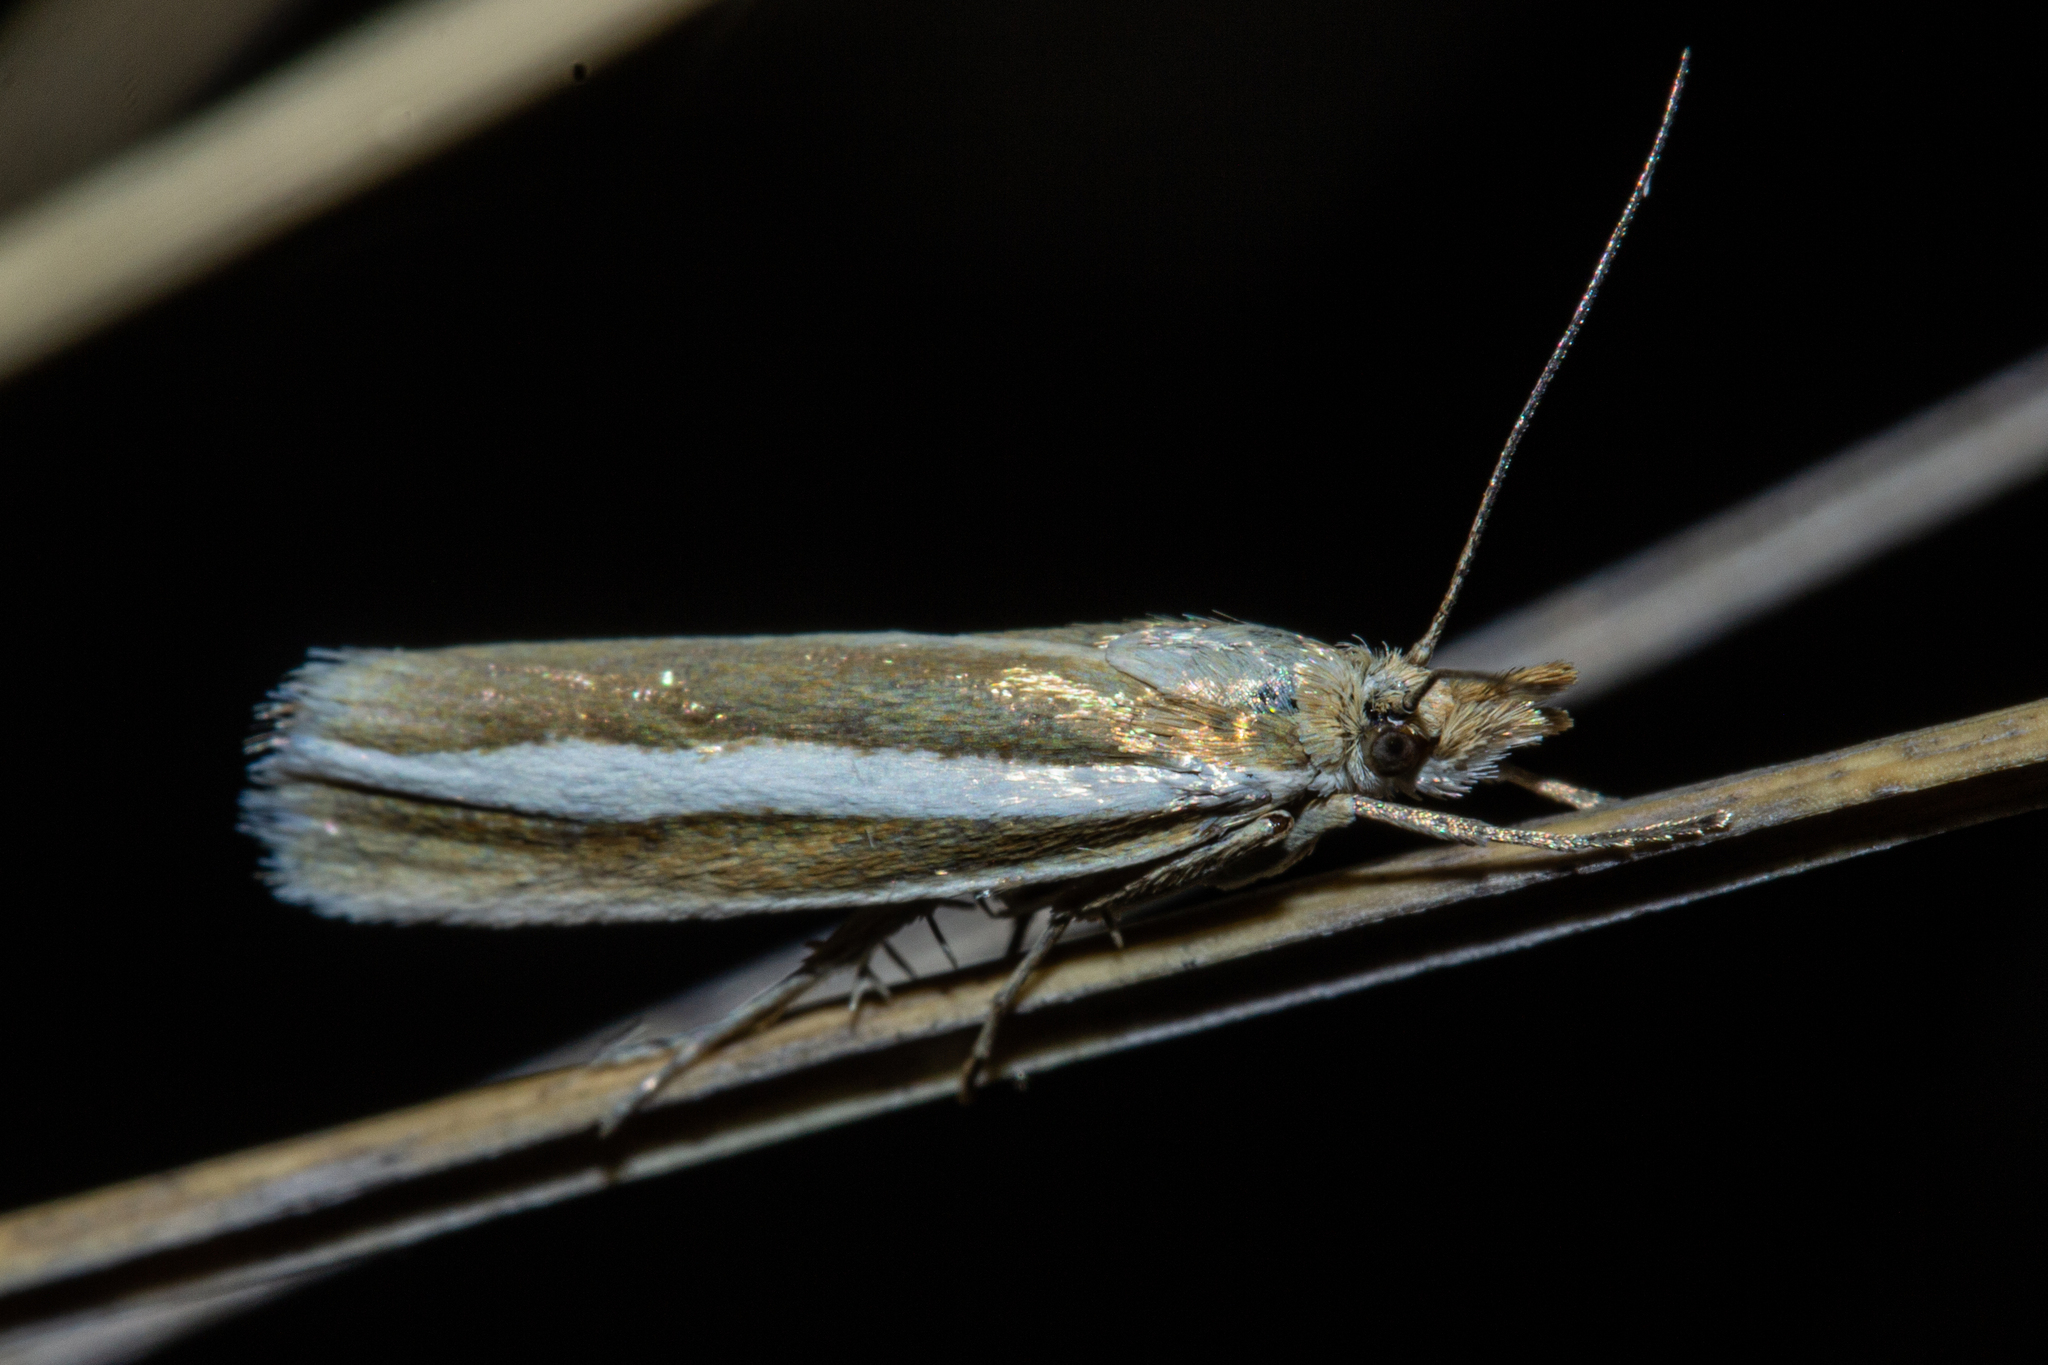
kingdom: Animalia
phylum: Arthropoda
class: Insecta
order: Lepidoptera
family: Crambidae
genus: Orocrambus
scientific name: Orocrambus aethonellus
